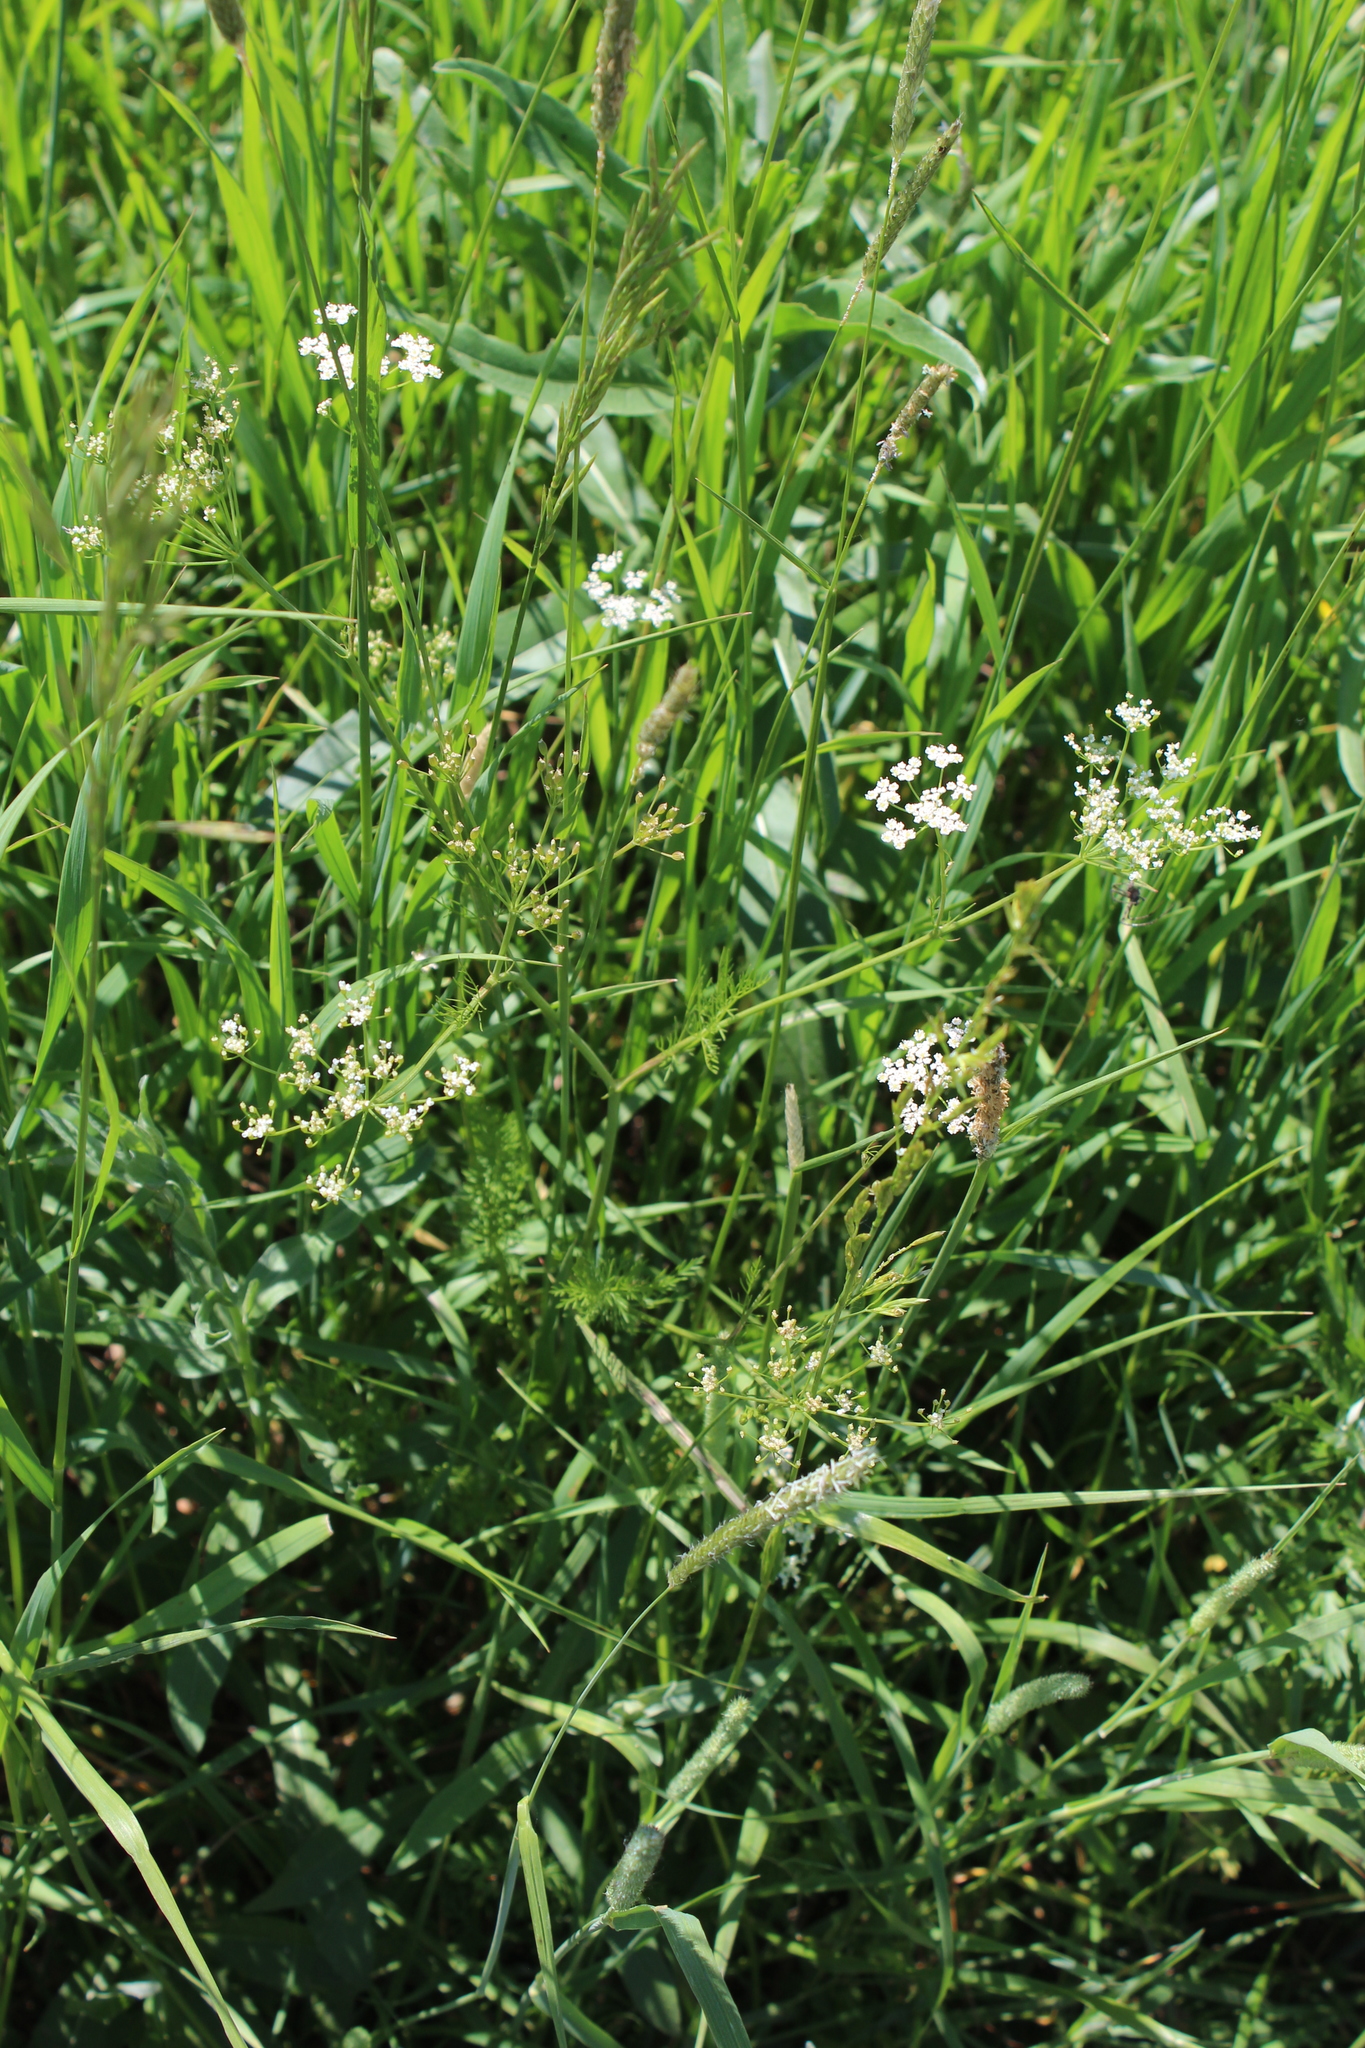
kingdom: Plantae
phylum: Tracheophyta
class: Magnoliopsida
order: Apiales
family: Apiaceae
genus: Carum
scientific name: Carum carvi
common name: Caraway
